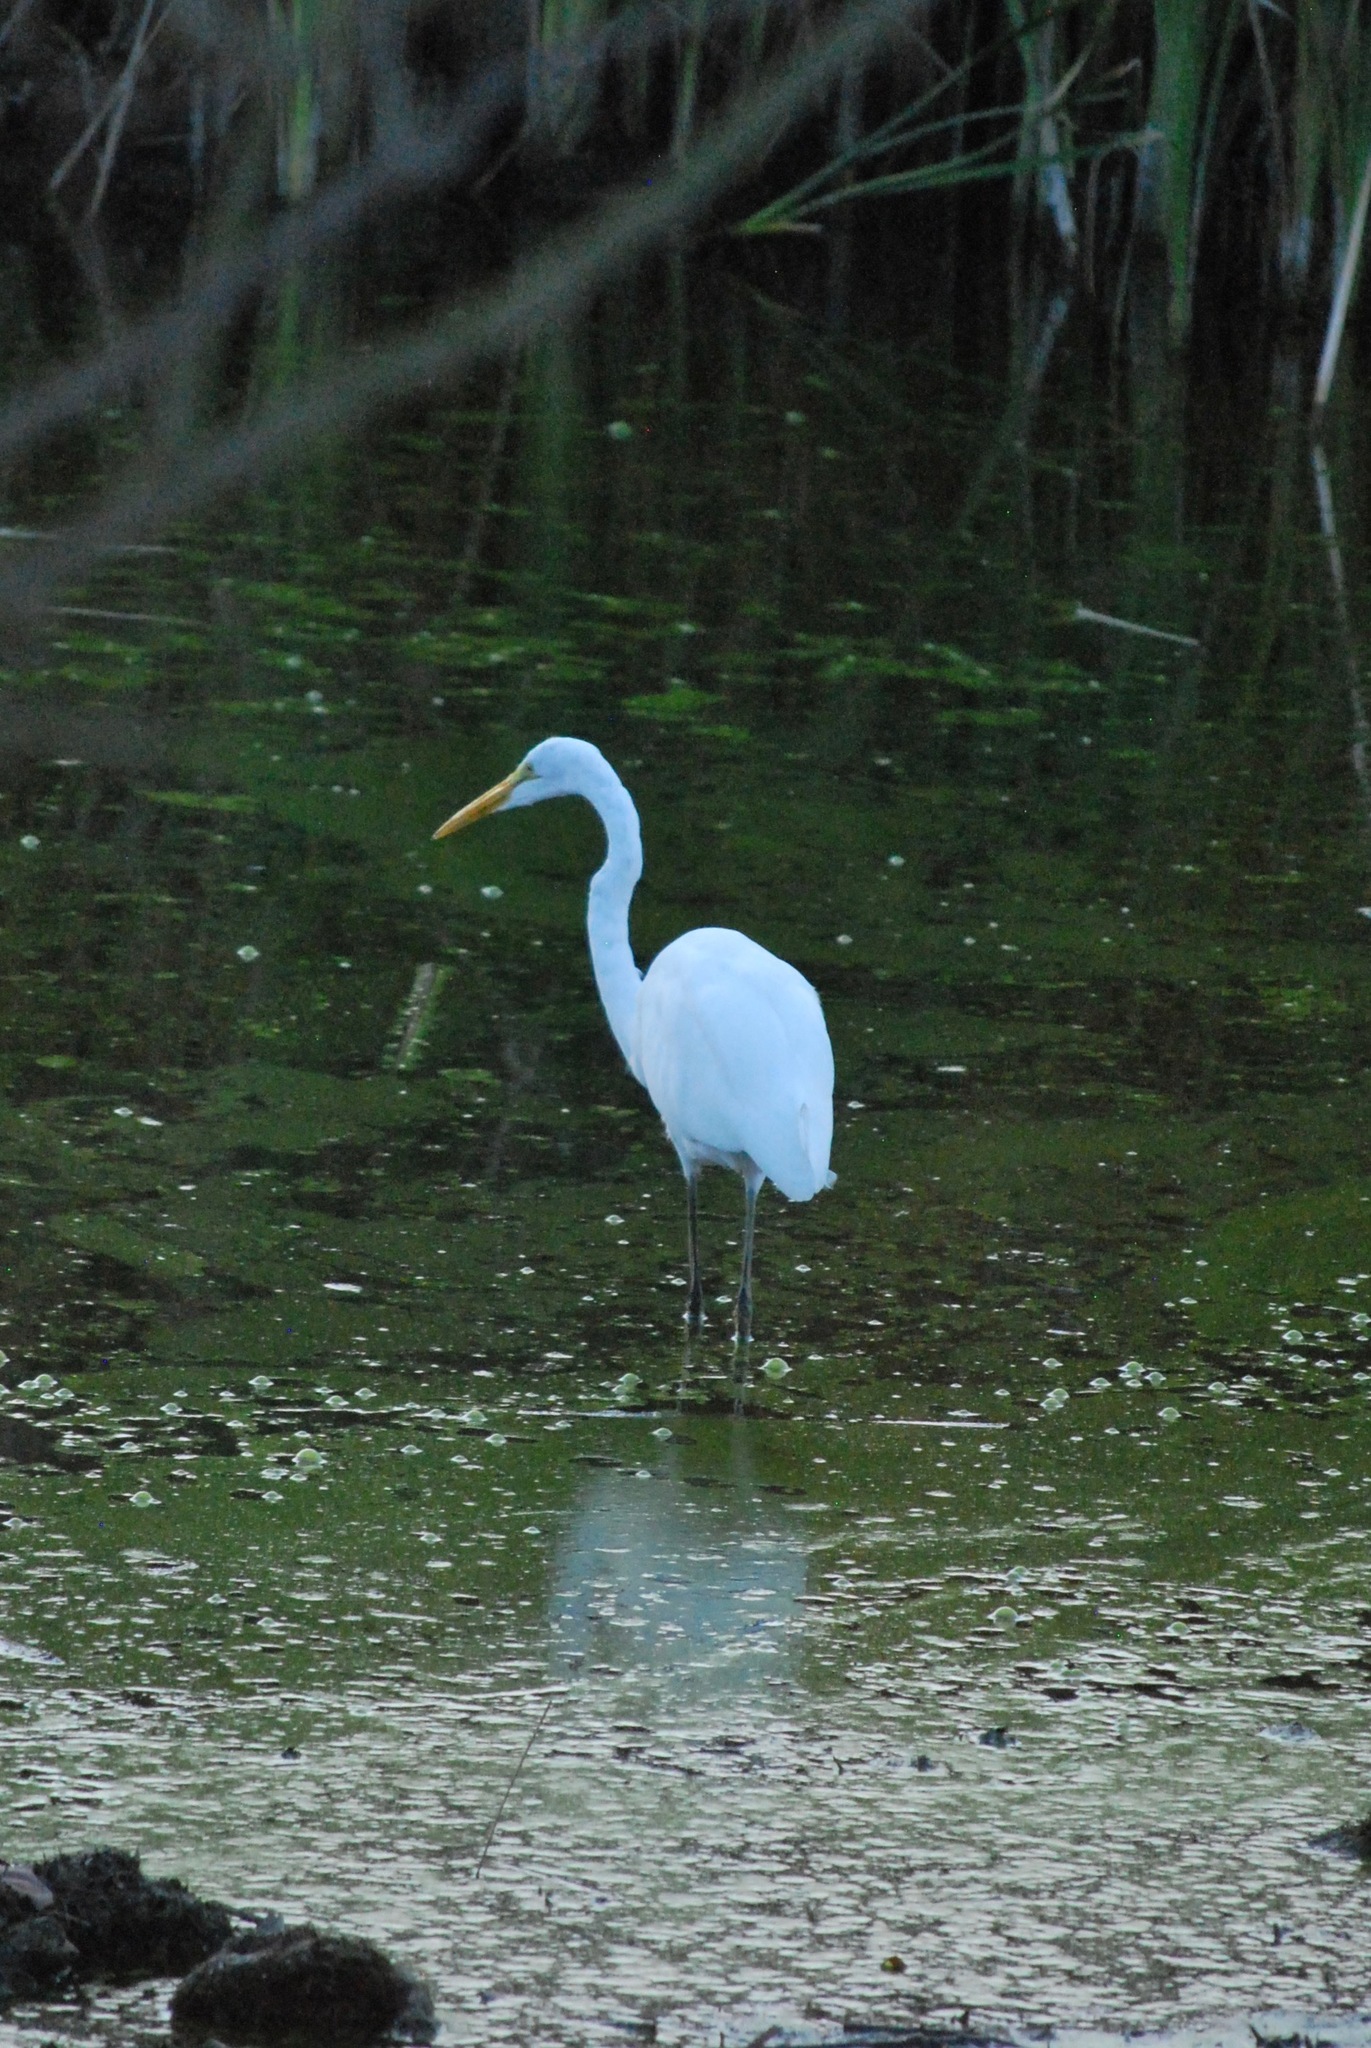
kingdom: Animalia
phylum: Chordata
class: Aves
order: Pelecaniformes
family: Ardeidae
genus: Ardea
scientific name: Ardea alba
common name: Great egret
